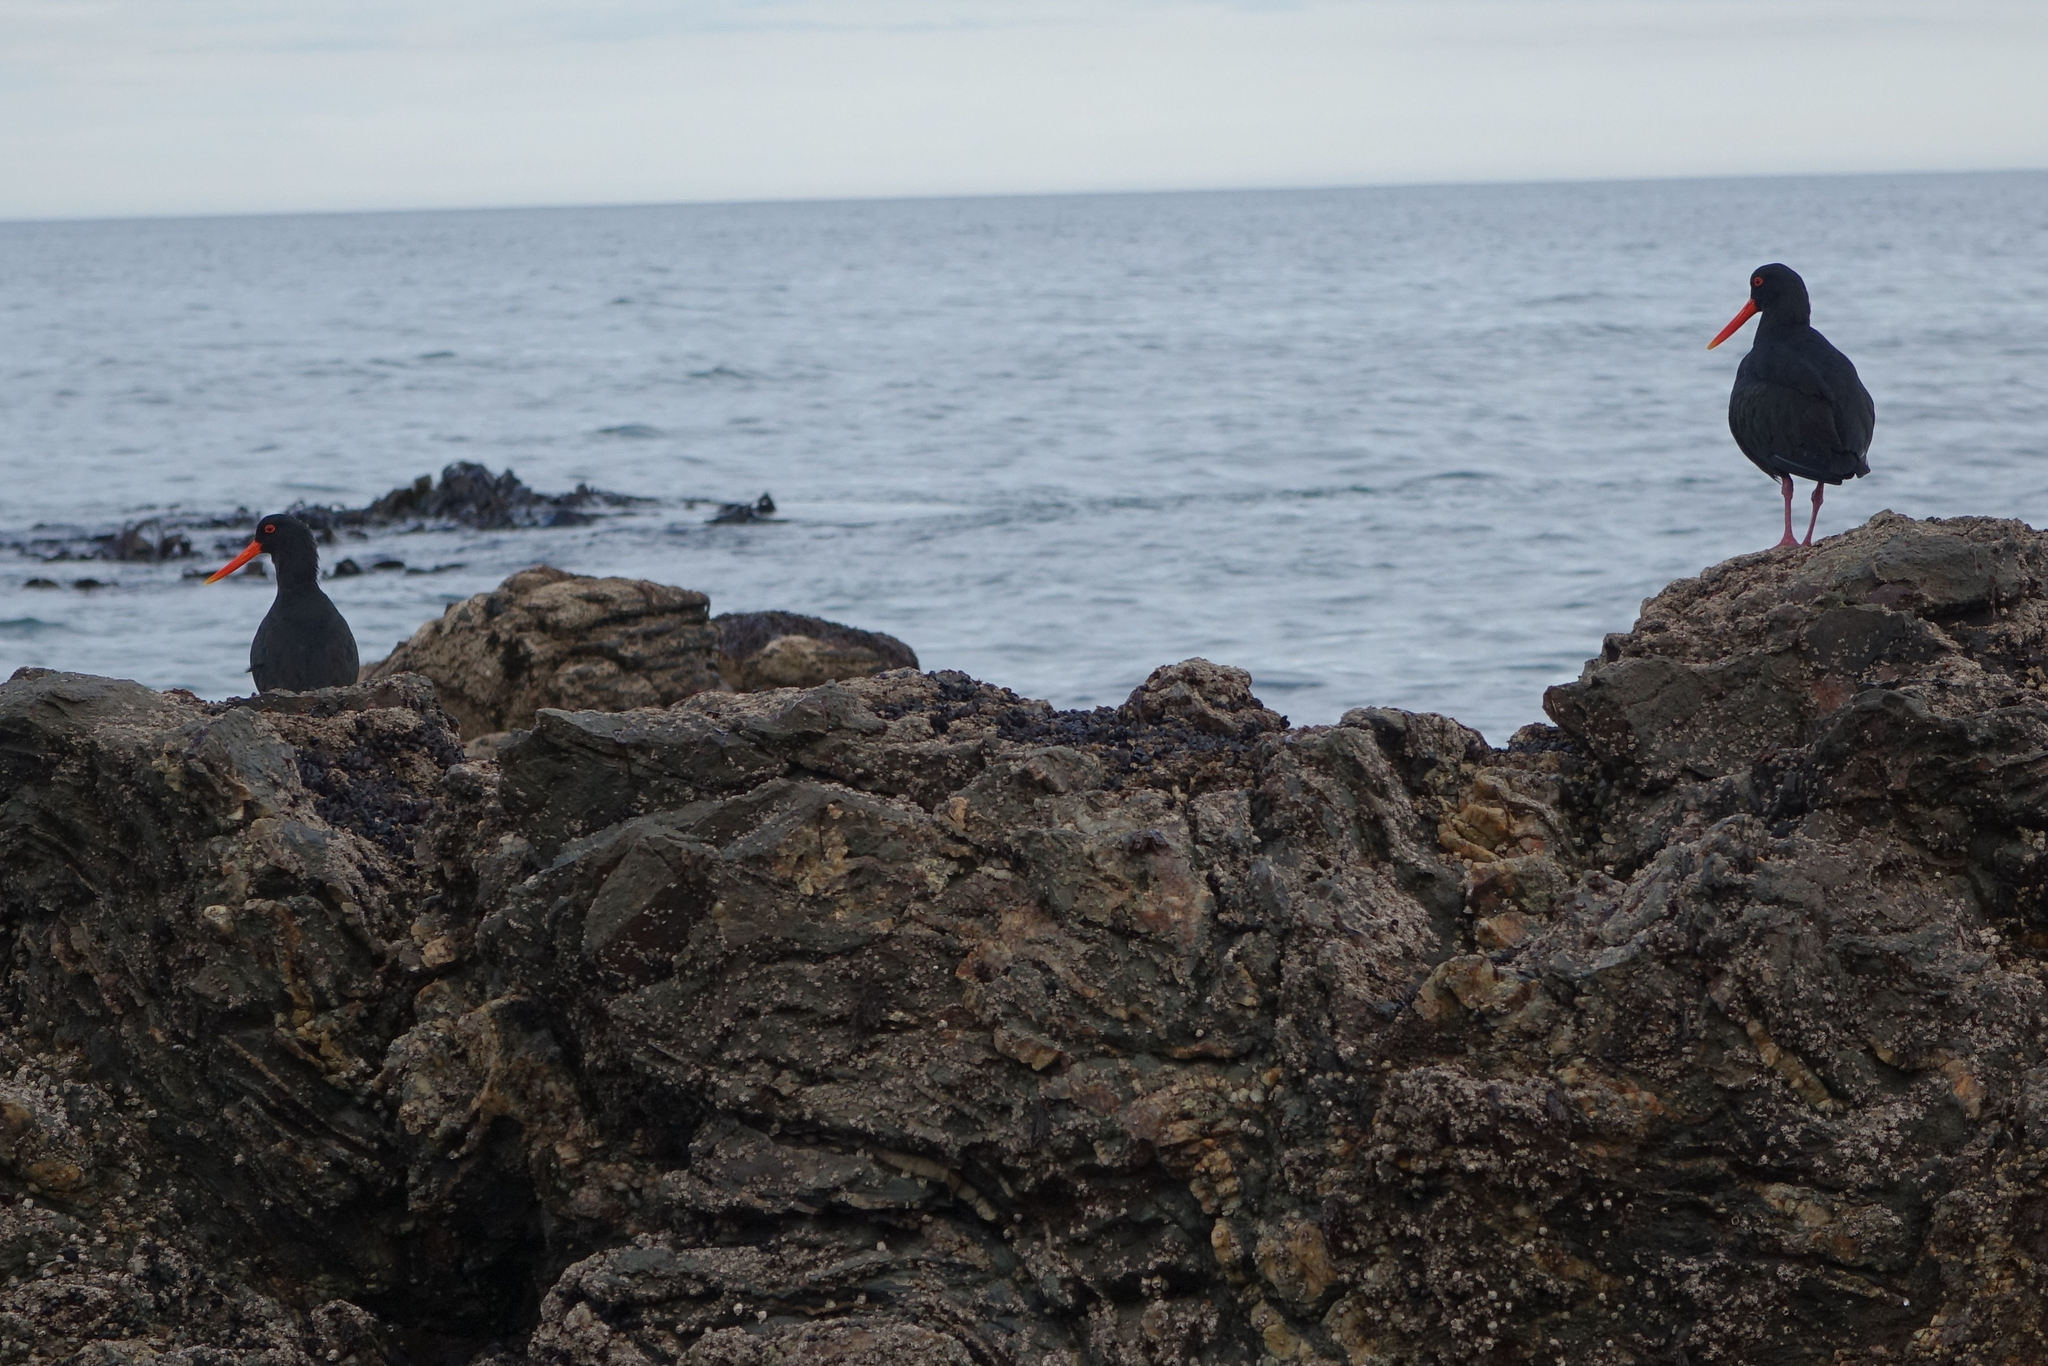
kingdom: Animalia
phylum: Chordata
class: Aves
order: Charadriiformes
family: Haematopodidae
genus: Haematopus
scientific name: Haematopus unicolor
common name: Variable oystercatcher
